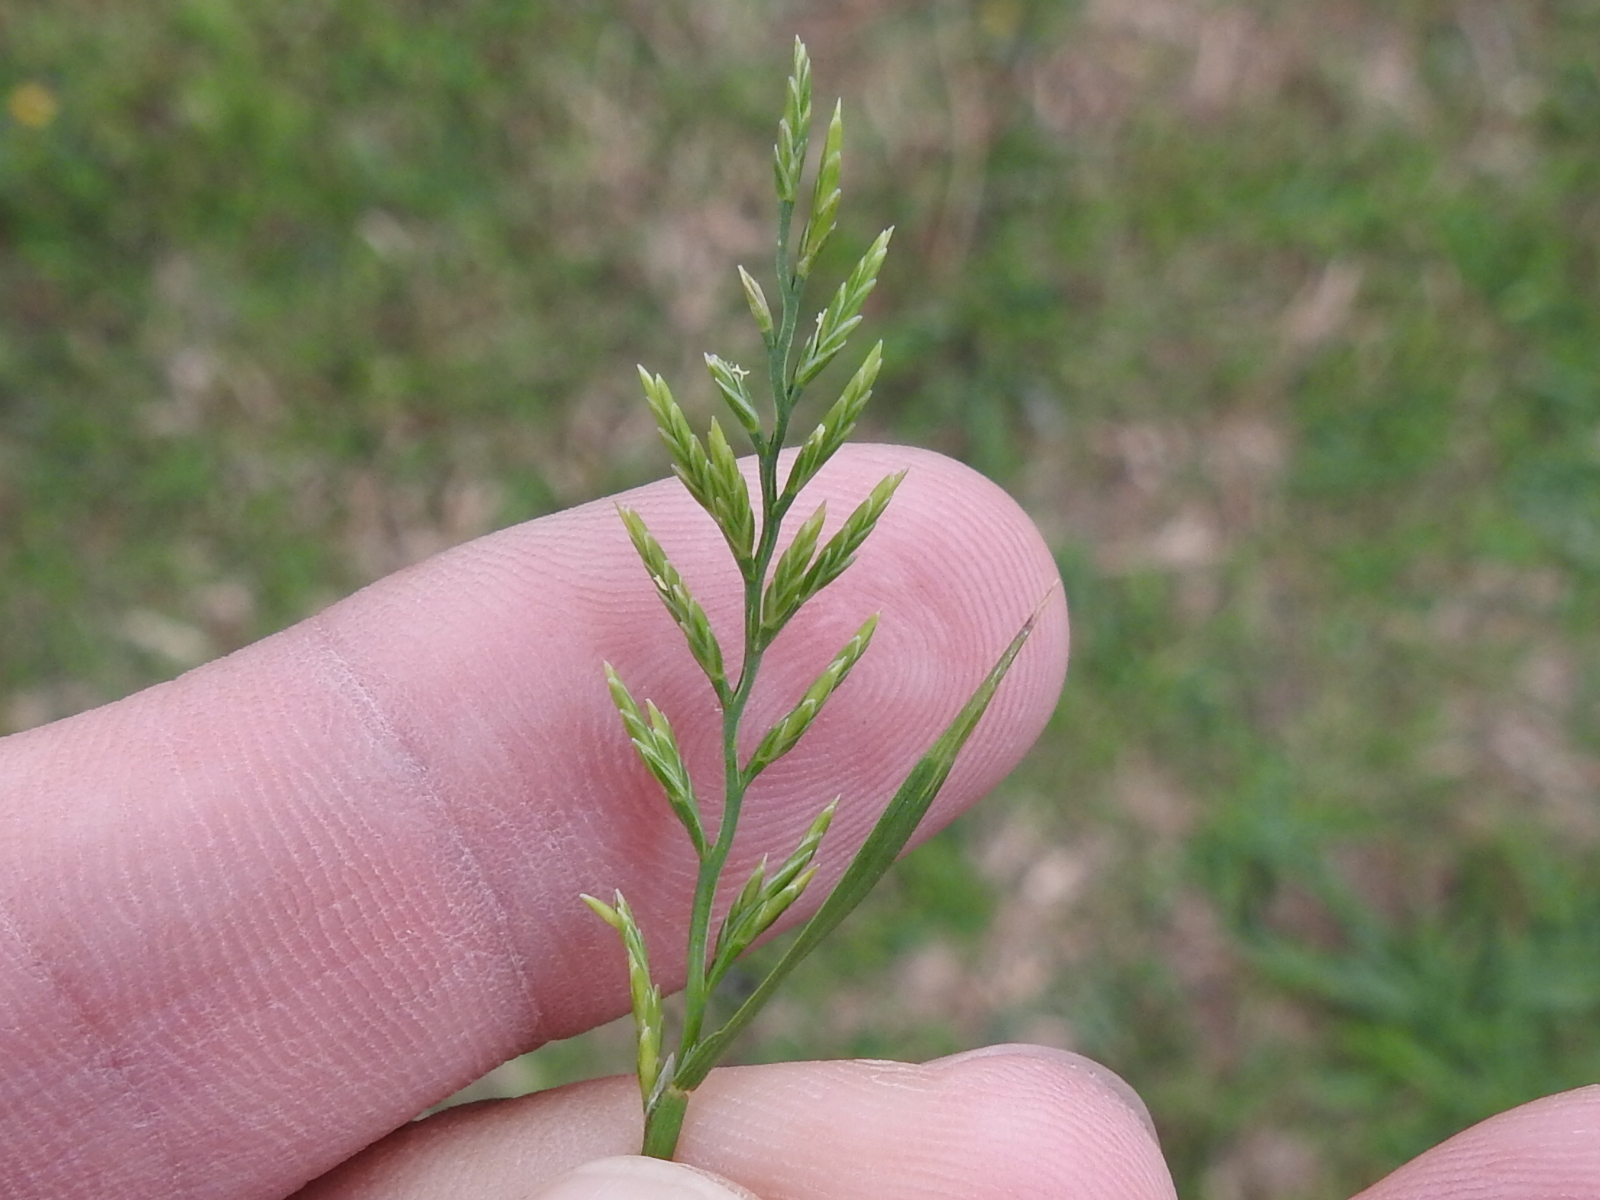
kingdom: Plantae
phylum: Tracheophyta
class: Liliopsida
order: Poales
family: Poaceae
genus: Catapodium
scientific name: Catapodium rigidum
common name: Fern-grass
